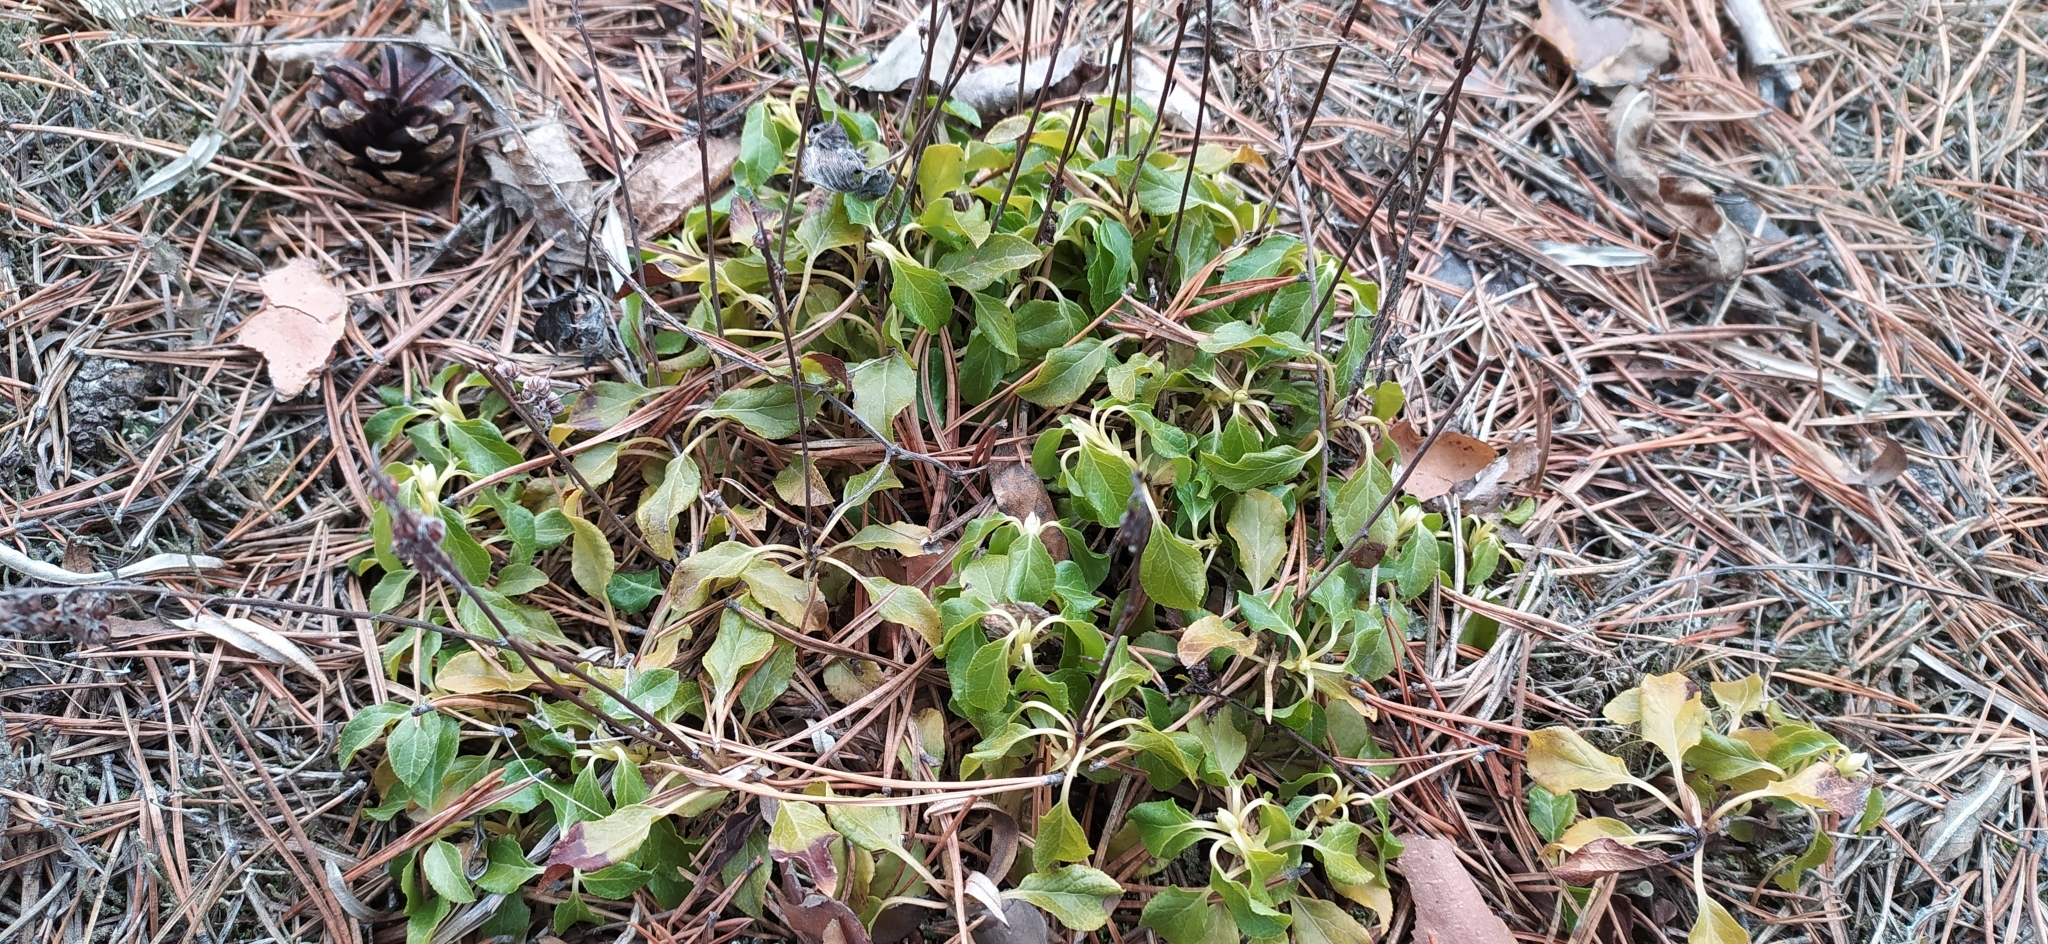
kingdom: Plantae
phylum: Tracheophyta
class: Magnoliopsida
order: Ericales
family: Ericaceae
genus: Orthilia
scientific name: Orthilia secunda
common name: One-sided orthilia
